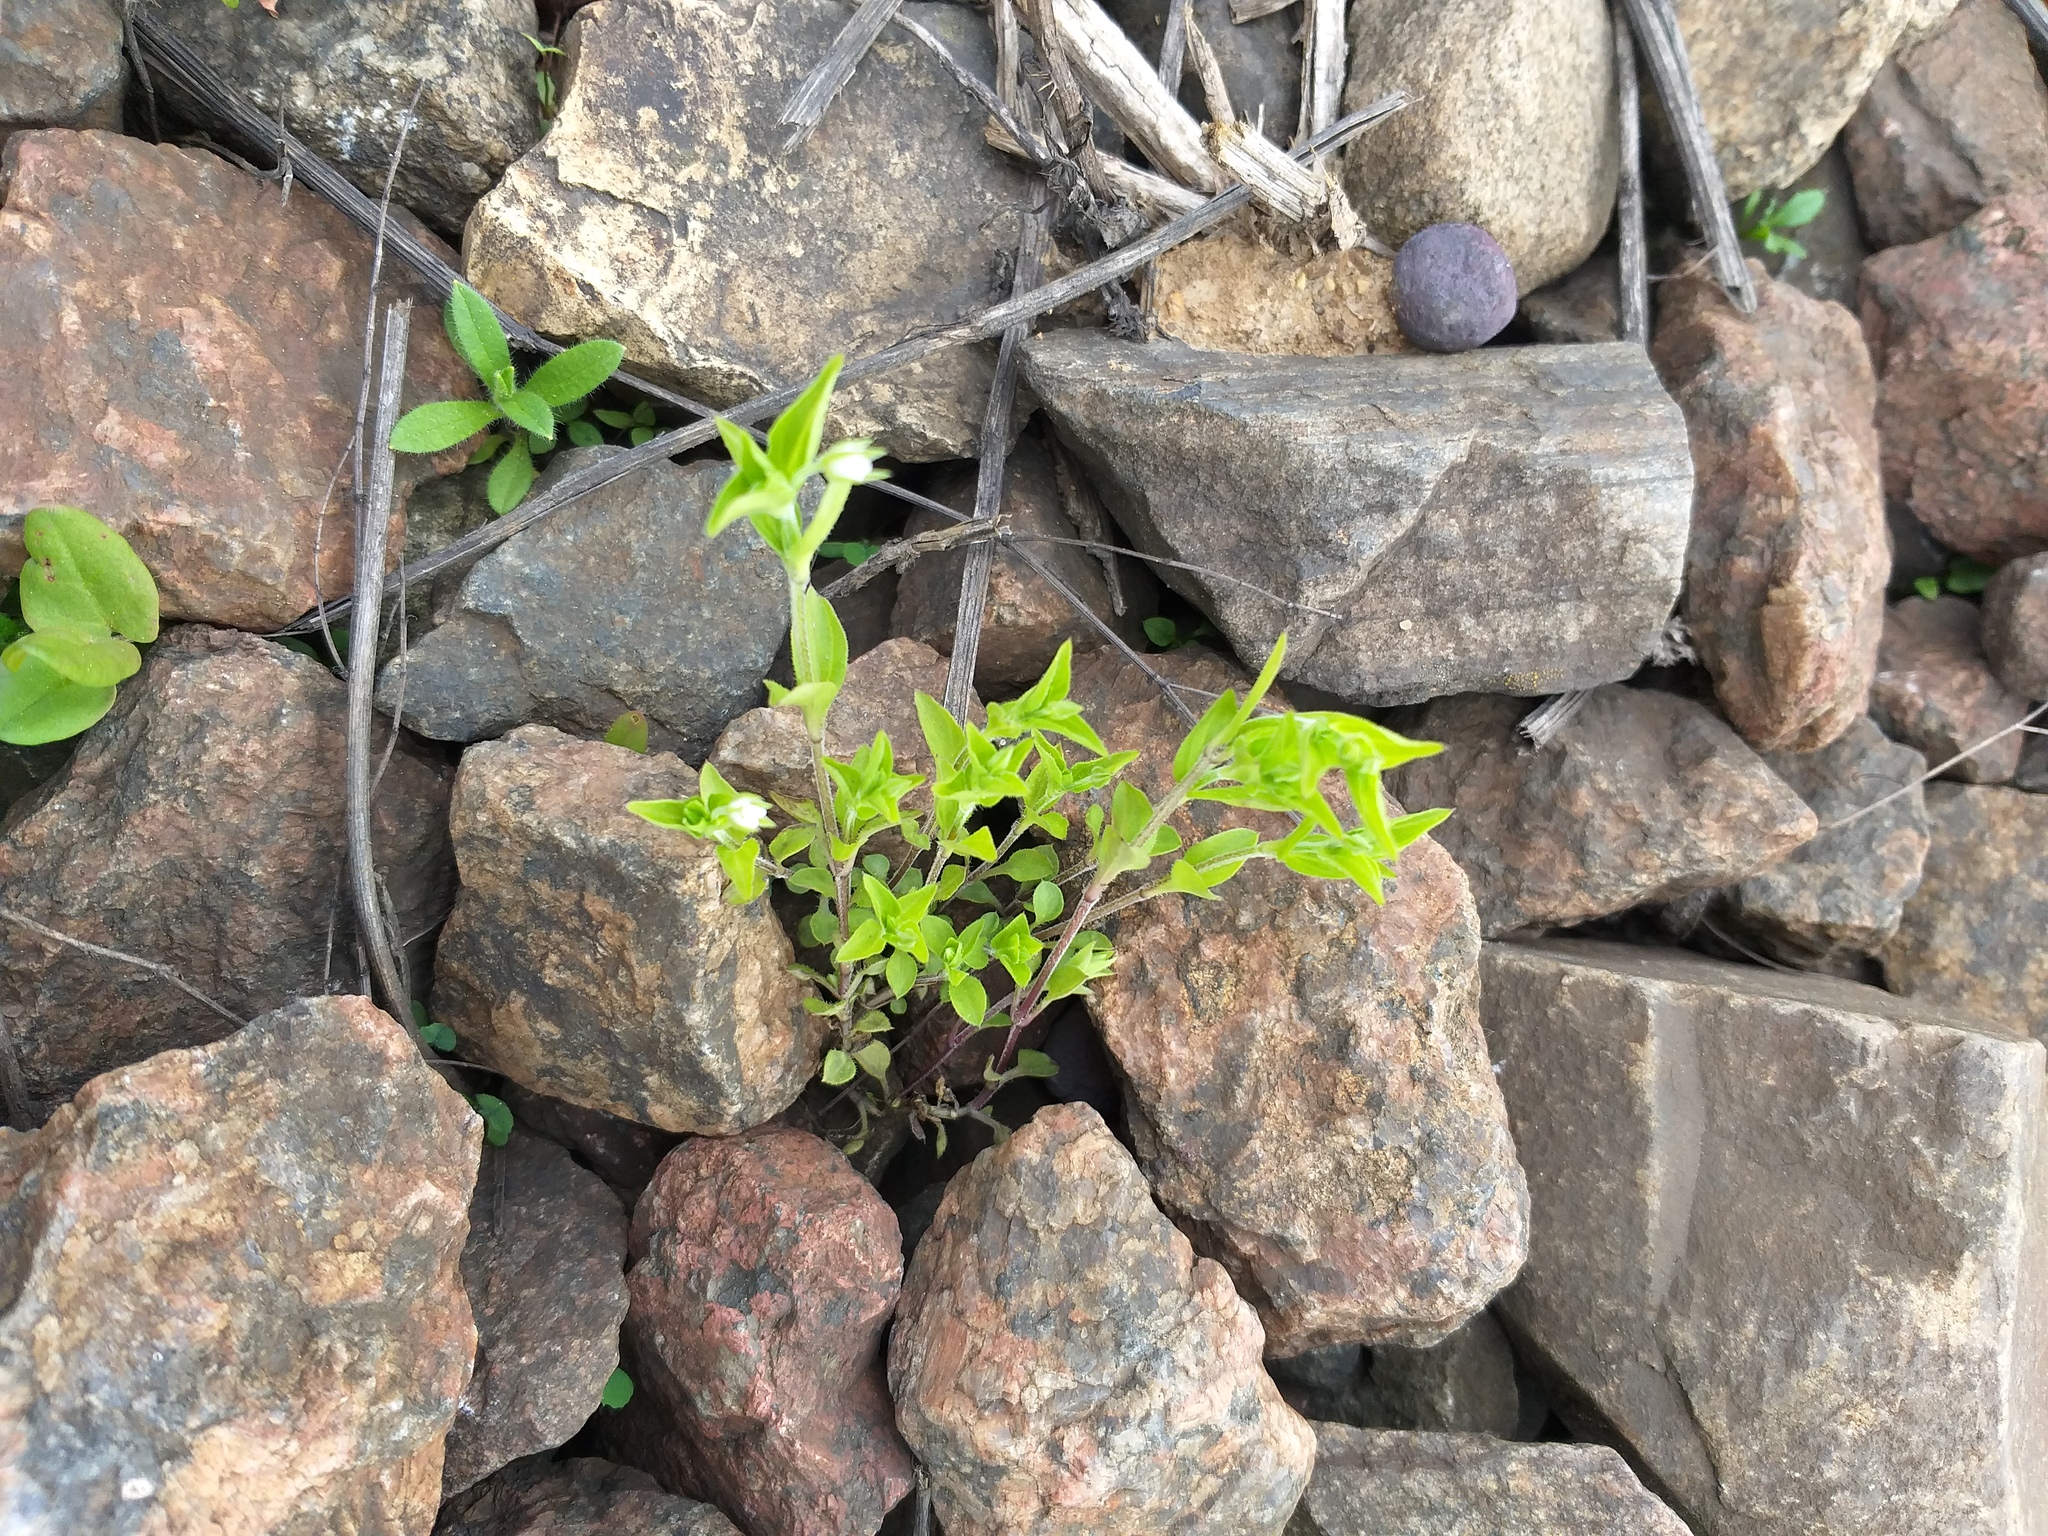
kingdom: Plantae
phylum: Tracheophyta
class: Magnoliopsida
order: Caryophyllales
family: Caryophyllaceae
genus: Moehringia
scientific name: Moehringia trinervia
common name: Three-nerved sandwort
